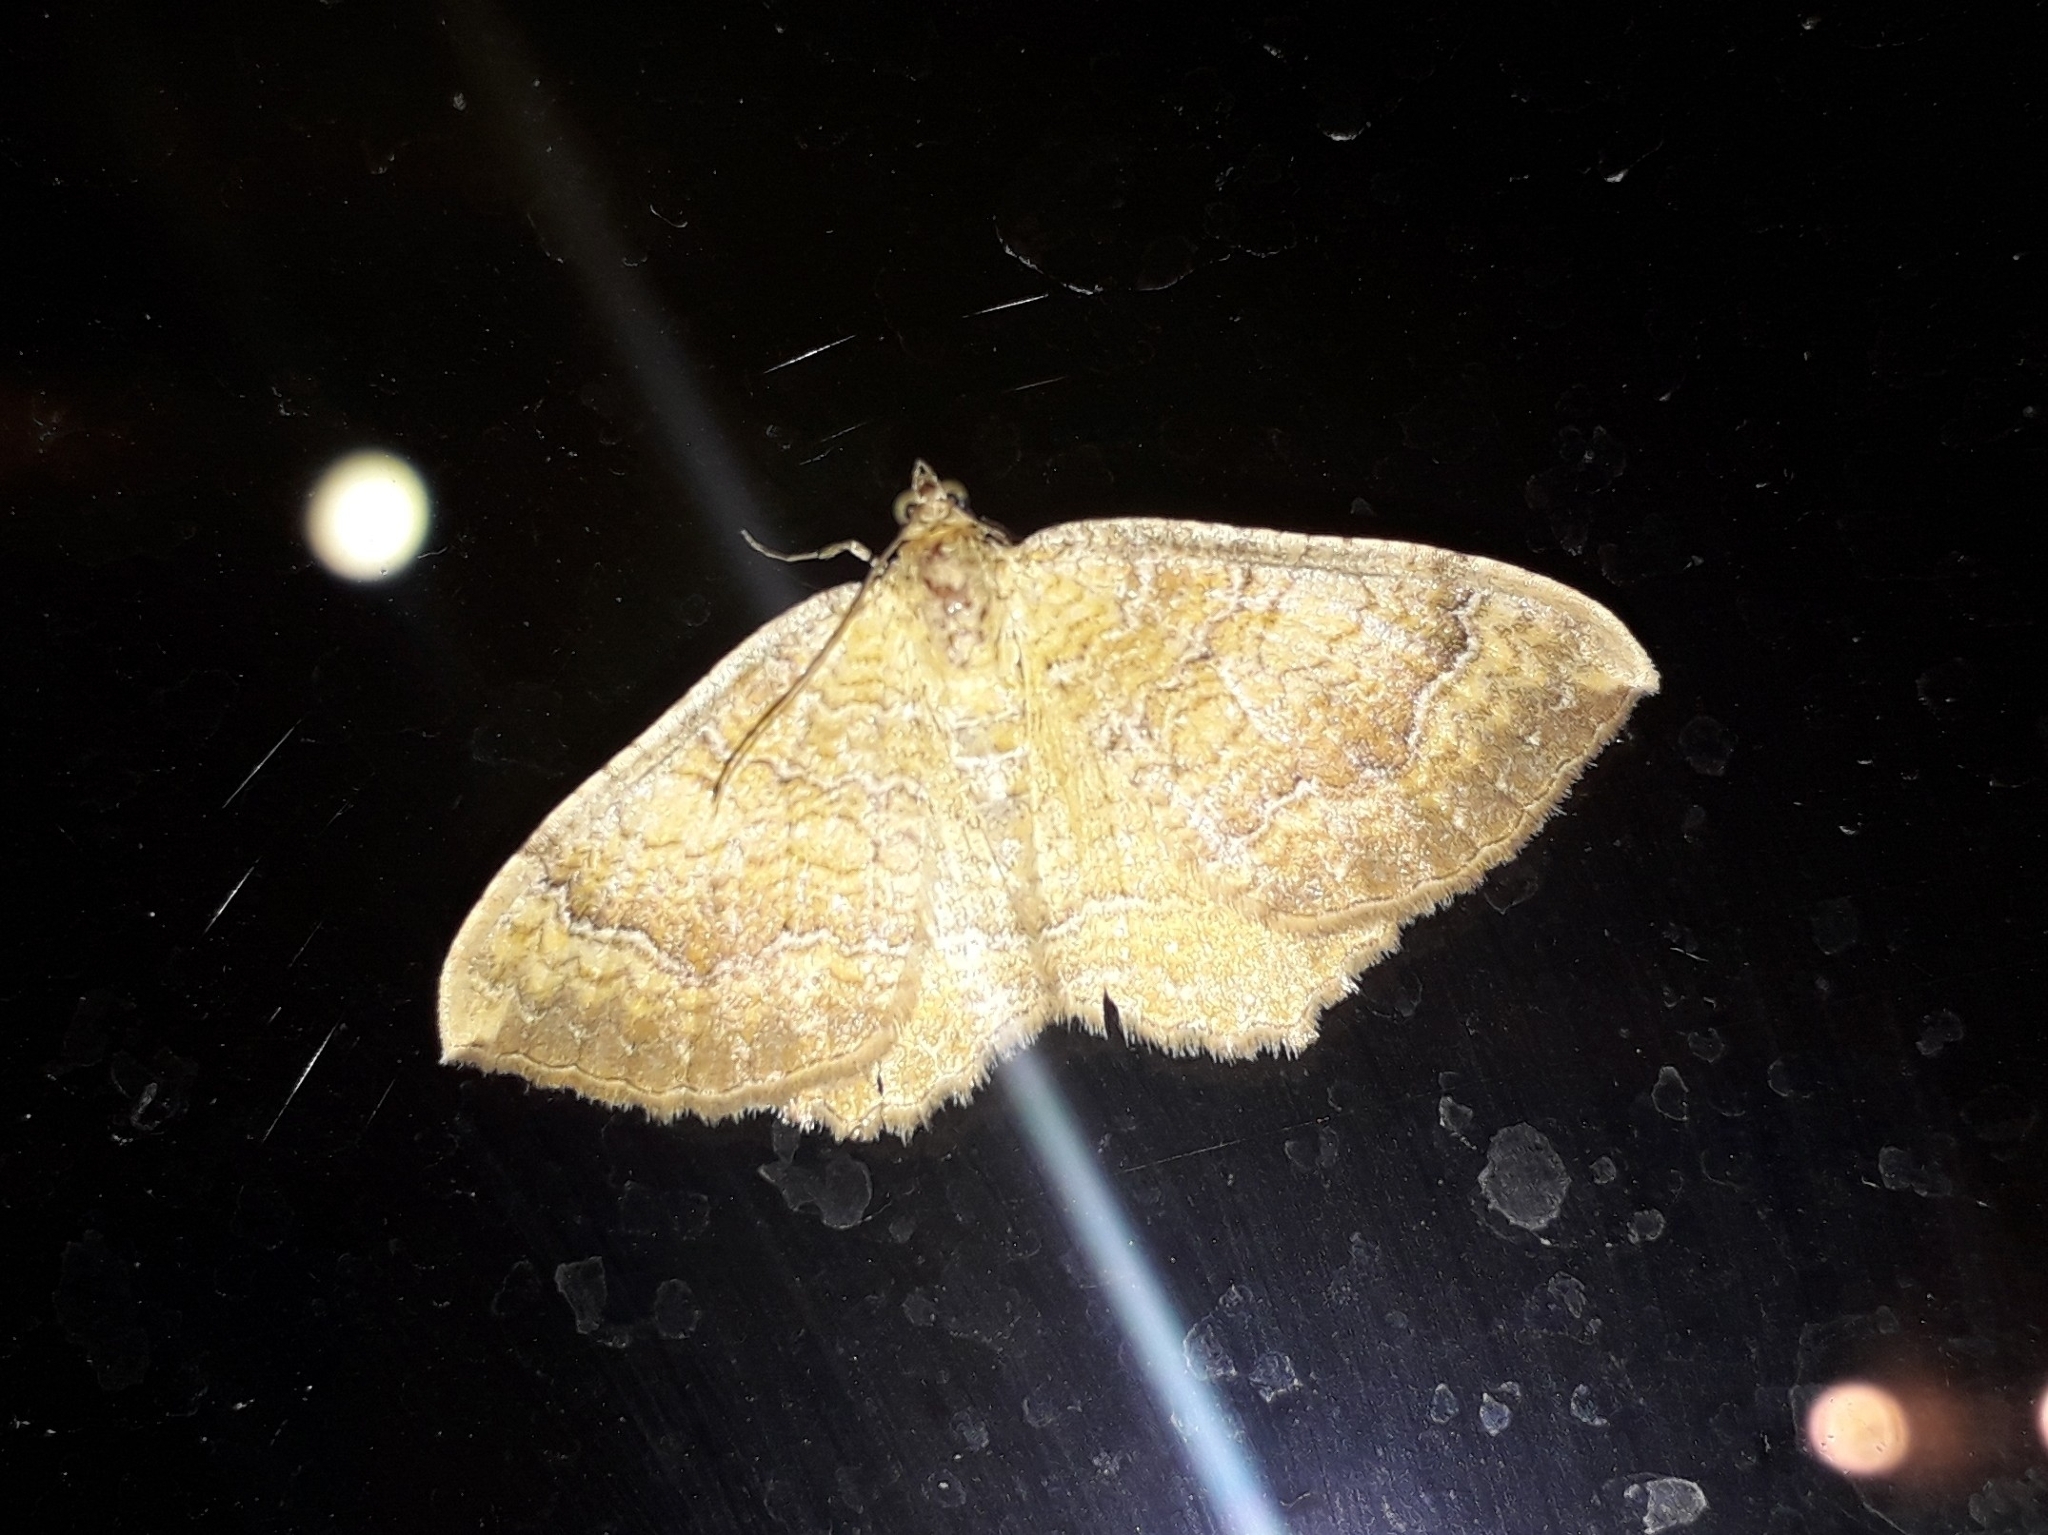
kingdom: Animalia
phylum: Arthropoda
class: Insecta
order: Lepidoptera
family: Geometridae
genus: Camptogramma
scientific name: Camptogramma bilineata
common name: Yellow shell
